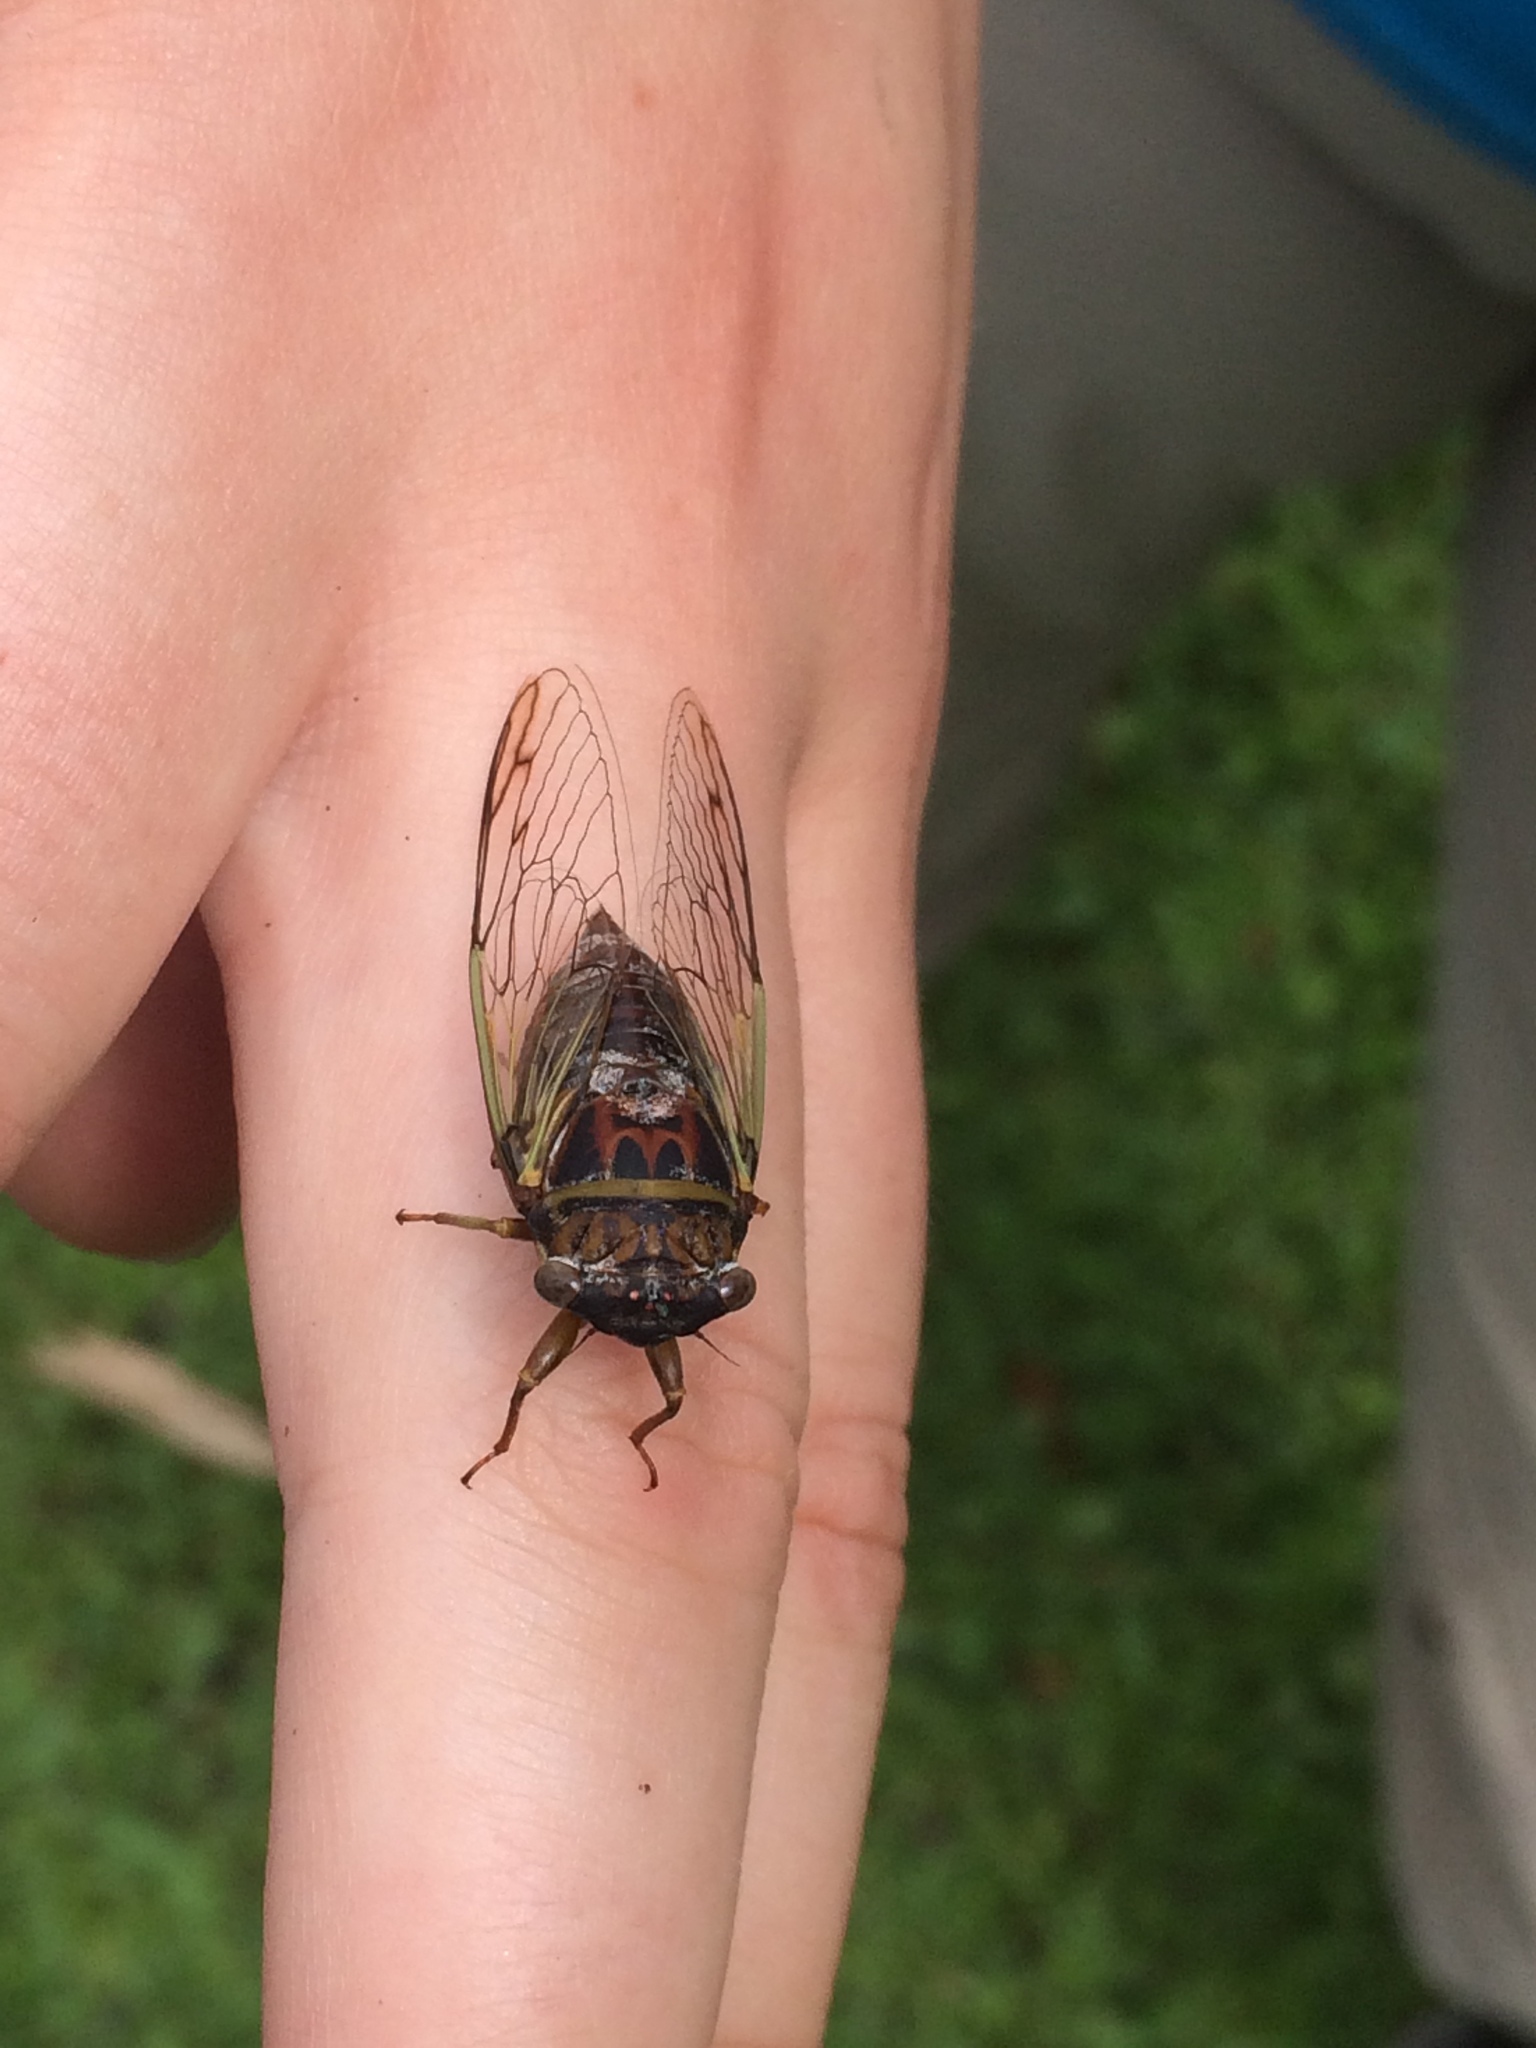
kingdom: Animalia
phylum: Arthropoda
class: Insecta
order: Hemiptera
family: Cicadidae
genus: Diceroprocta
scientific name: Diceroprocta olympusa
